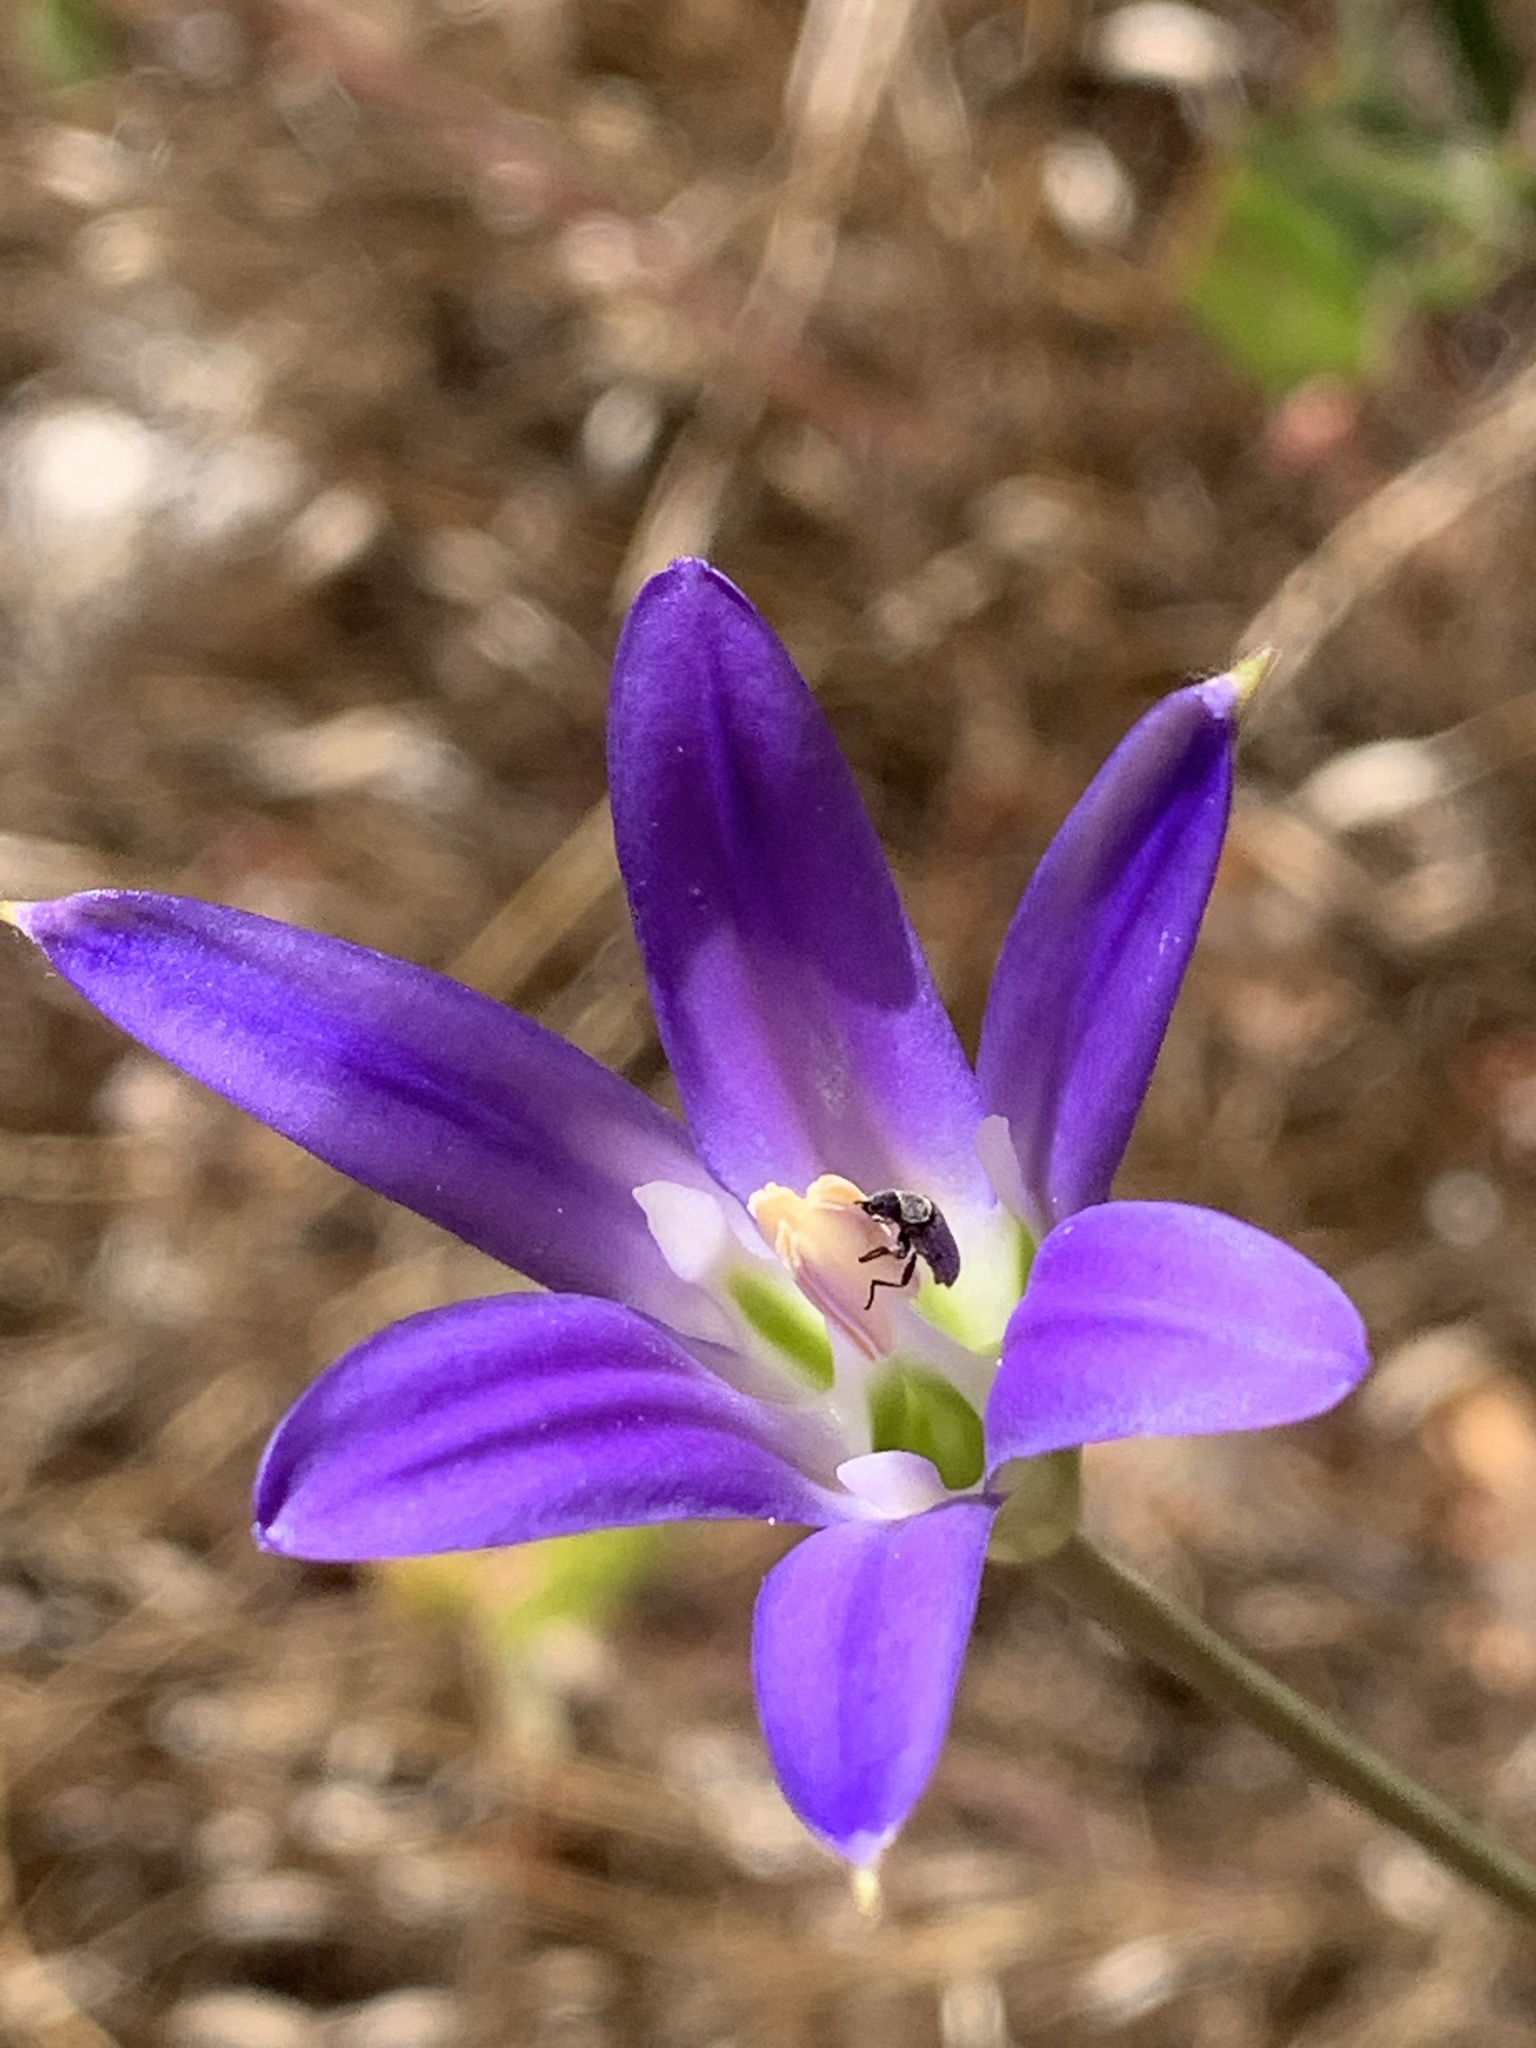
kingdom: Plantae
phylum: Tracheophyta
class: Liliopsida
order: Asparagales
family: Asparagaceae
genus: Brodiaea
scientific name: Brodiaea elegans
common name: Elegant cluster-lily
